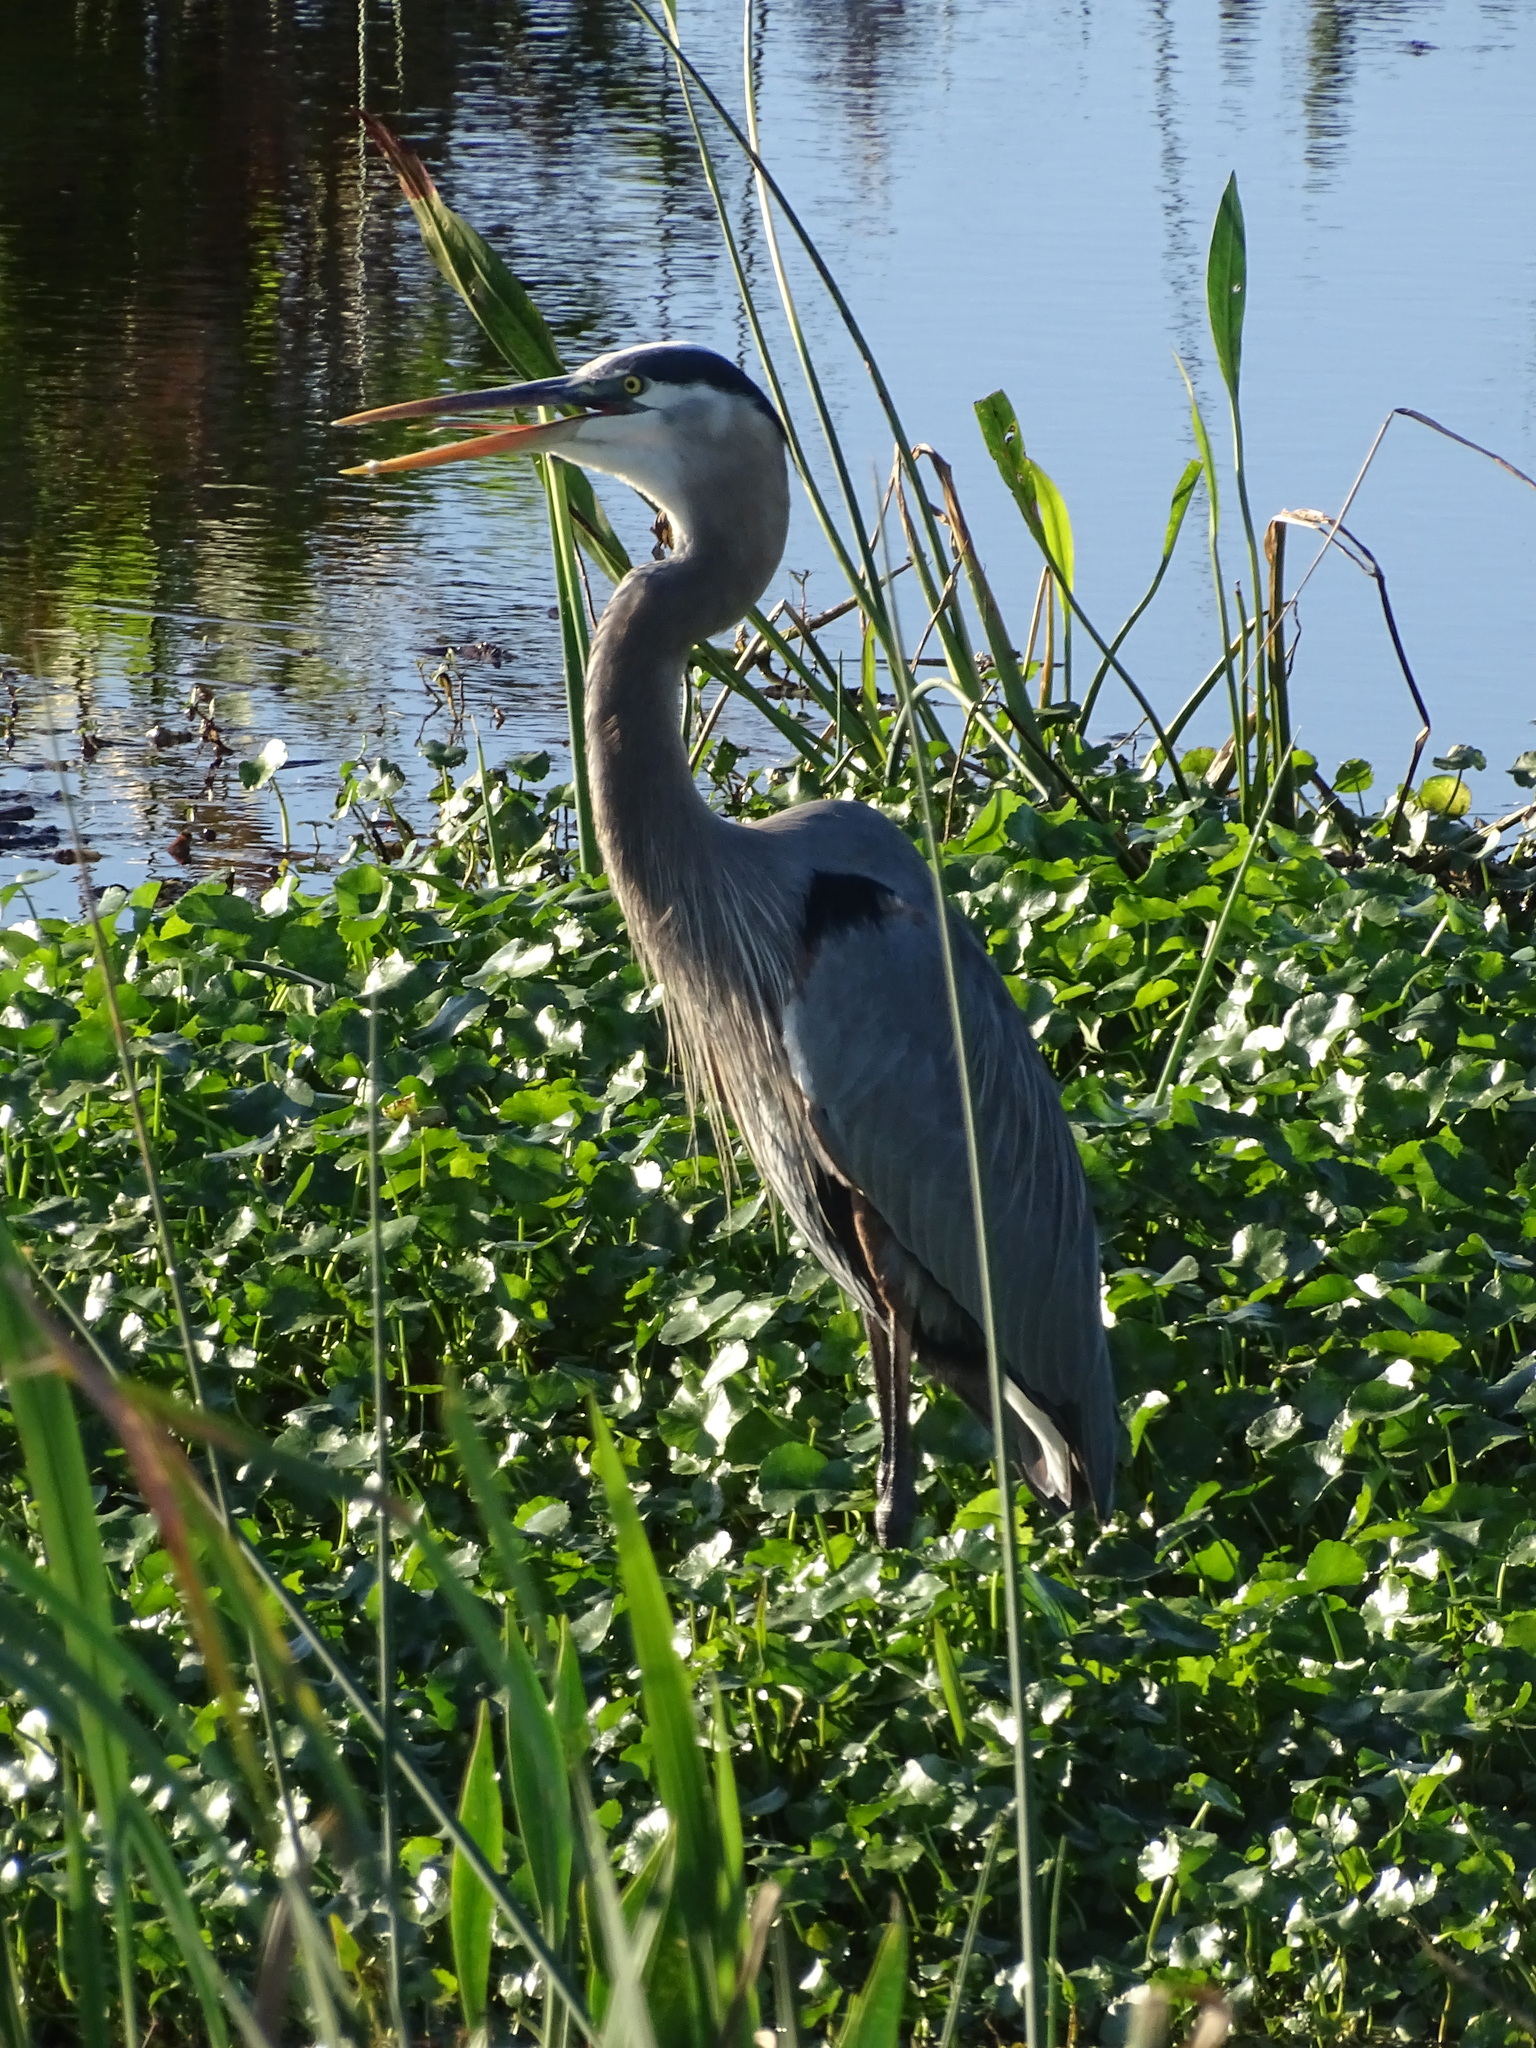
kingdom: Animalia
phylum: Chordata
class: Aves
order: Pelecaniformes
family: Ardeidae
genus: Ardea
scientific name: Ardea herodias
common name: Great blue heron
